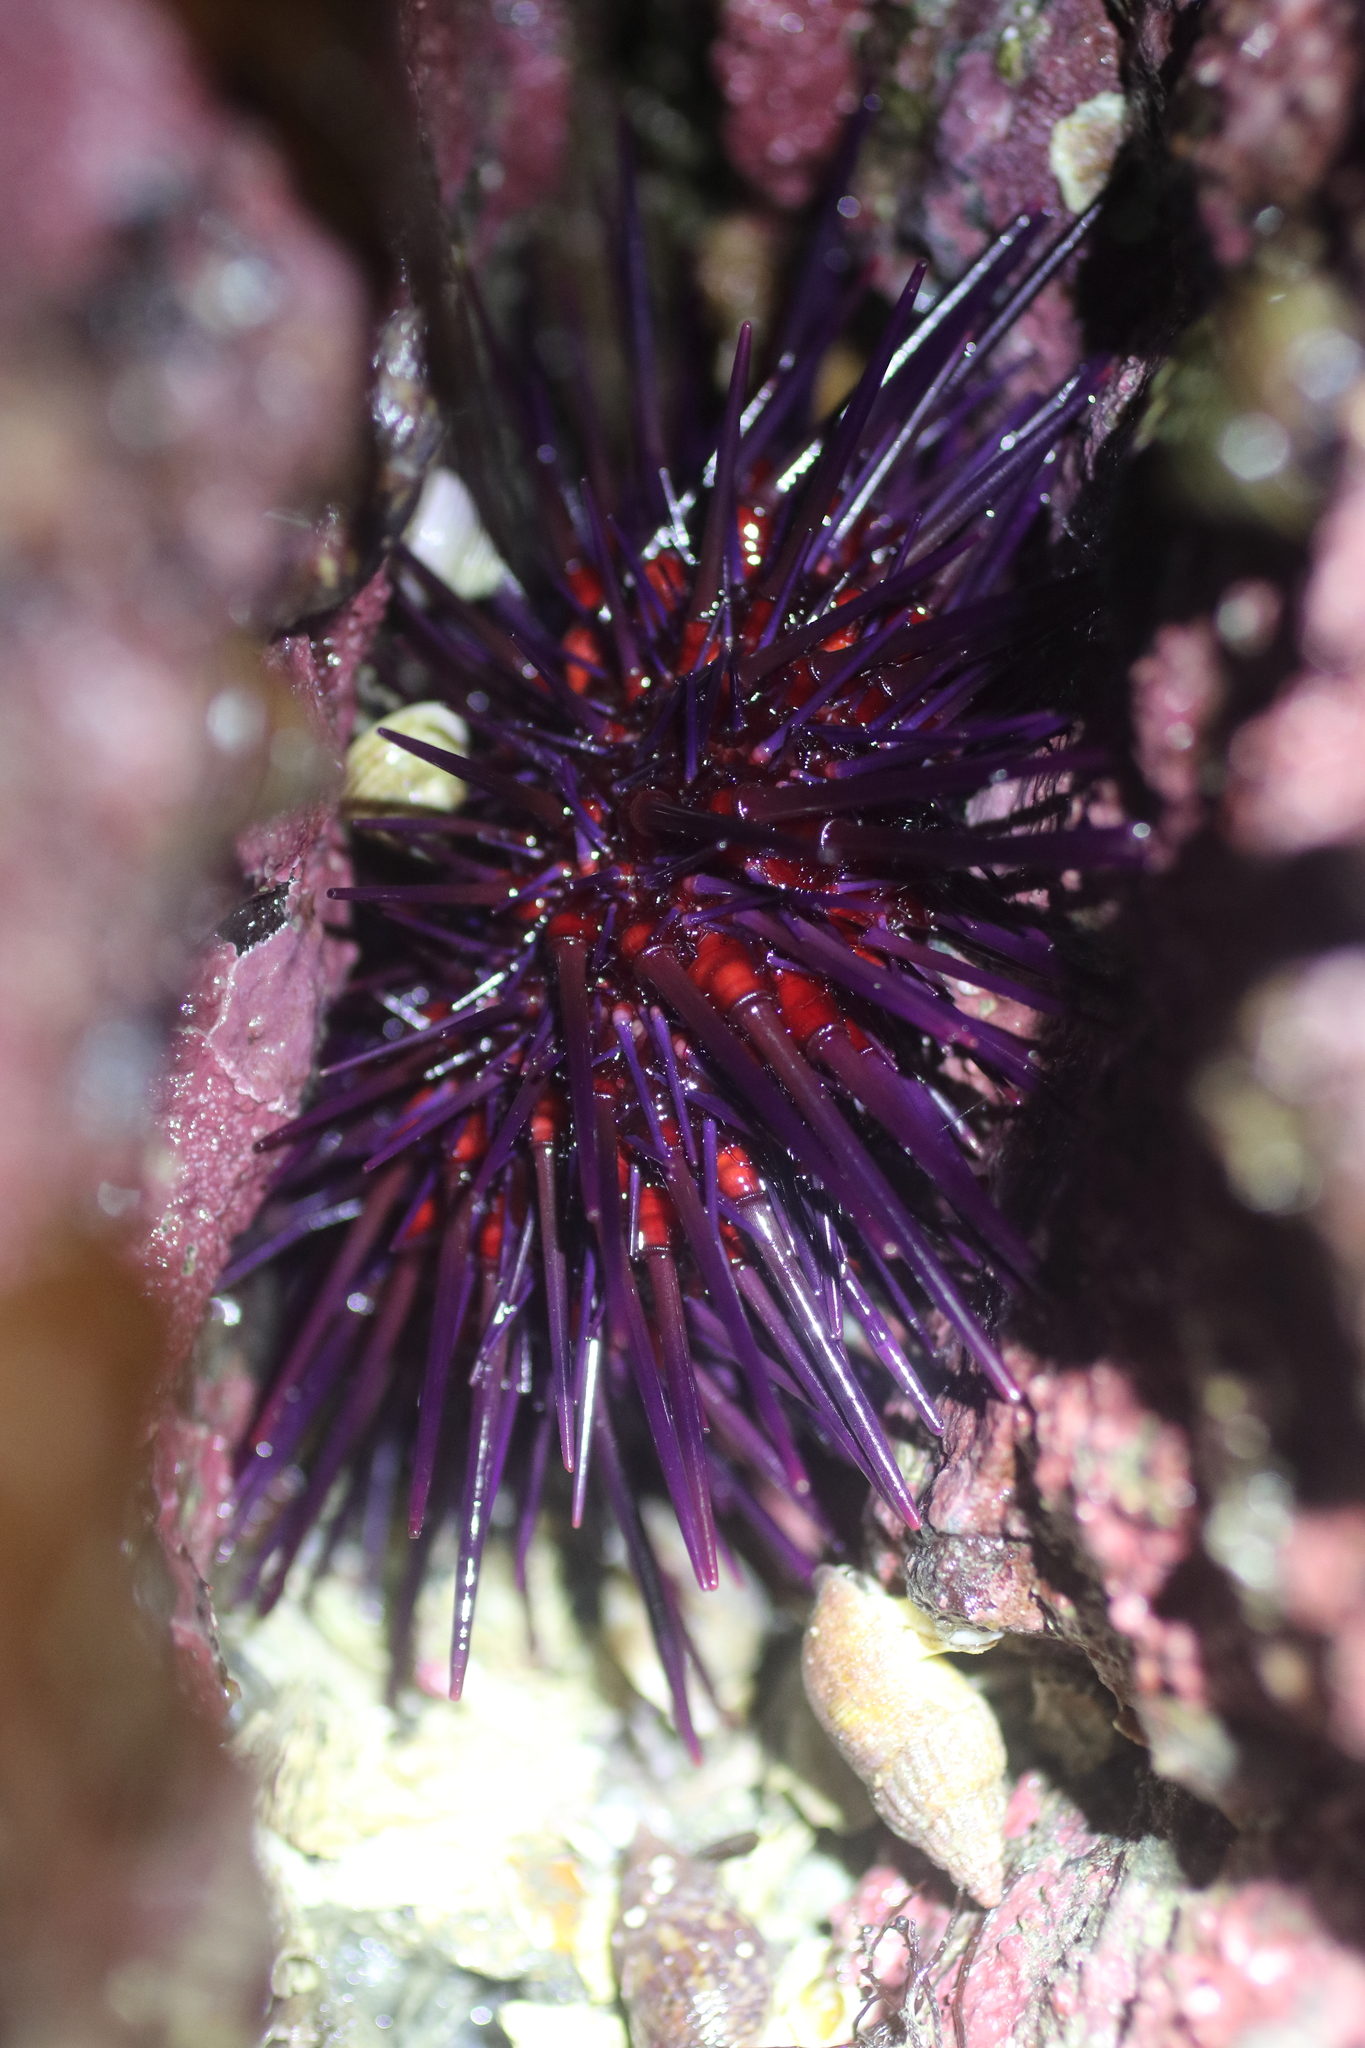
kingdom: Animalia
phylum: Echinodermata
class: Echinoidea
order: Camarodonta
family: Strongylocentrotidae
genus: Mesocentrotus
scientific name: Mesocentrotus franciscanus
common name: Red sea urchin
